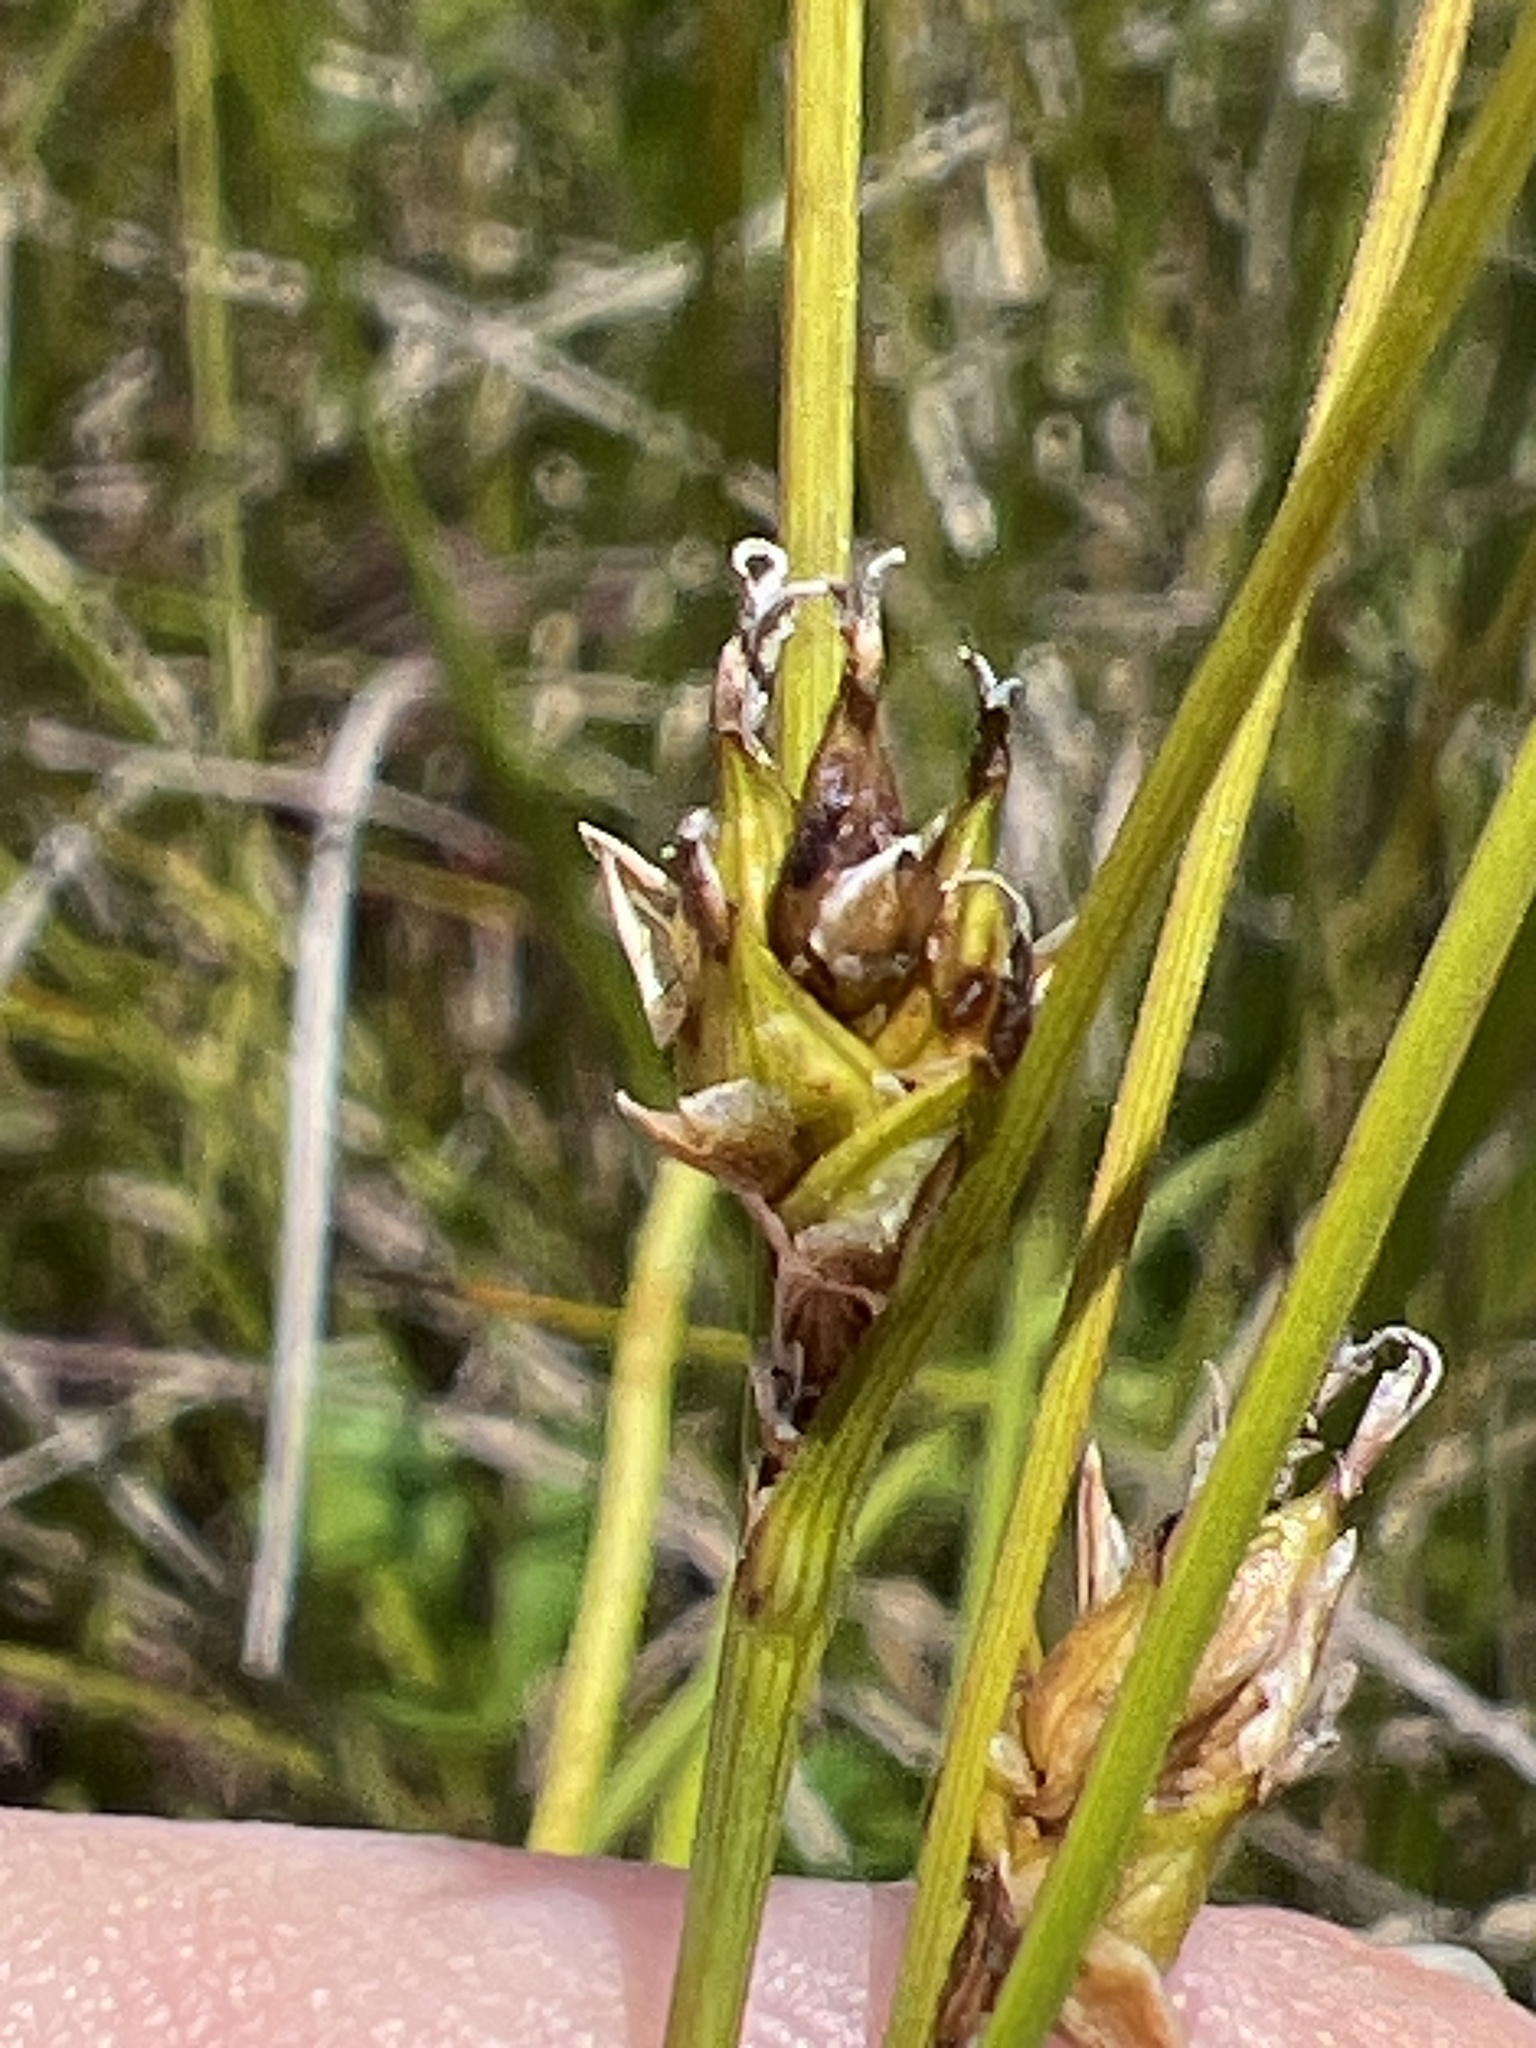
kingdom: Plantae
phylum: Tracheophyta
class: Liliopsida
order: Poales
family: Cyperaceae
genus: Carex
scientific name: Carex oligosperma
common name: Few-seed sedge
